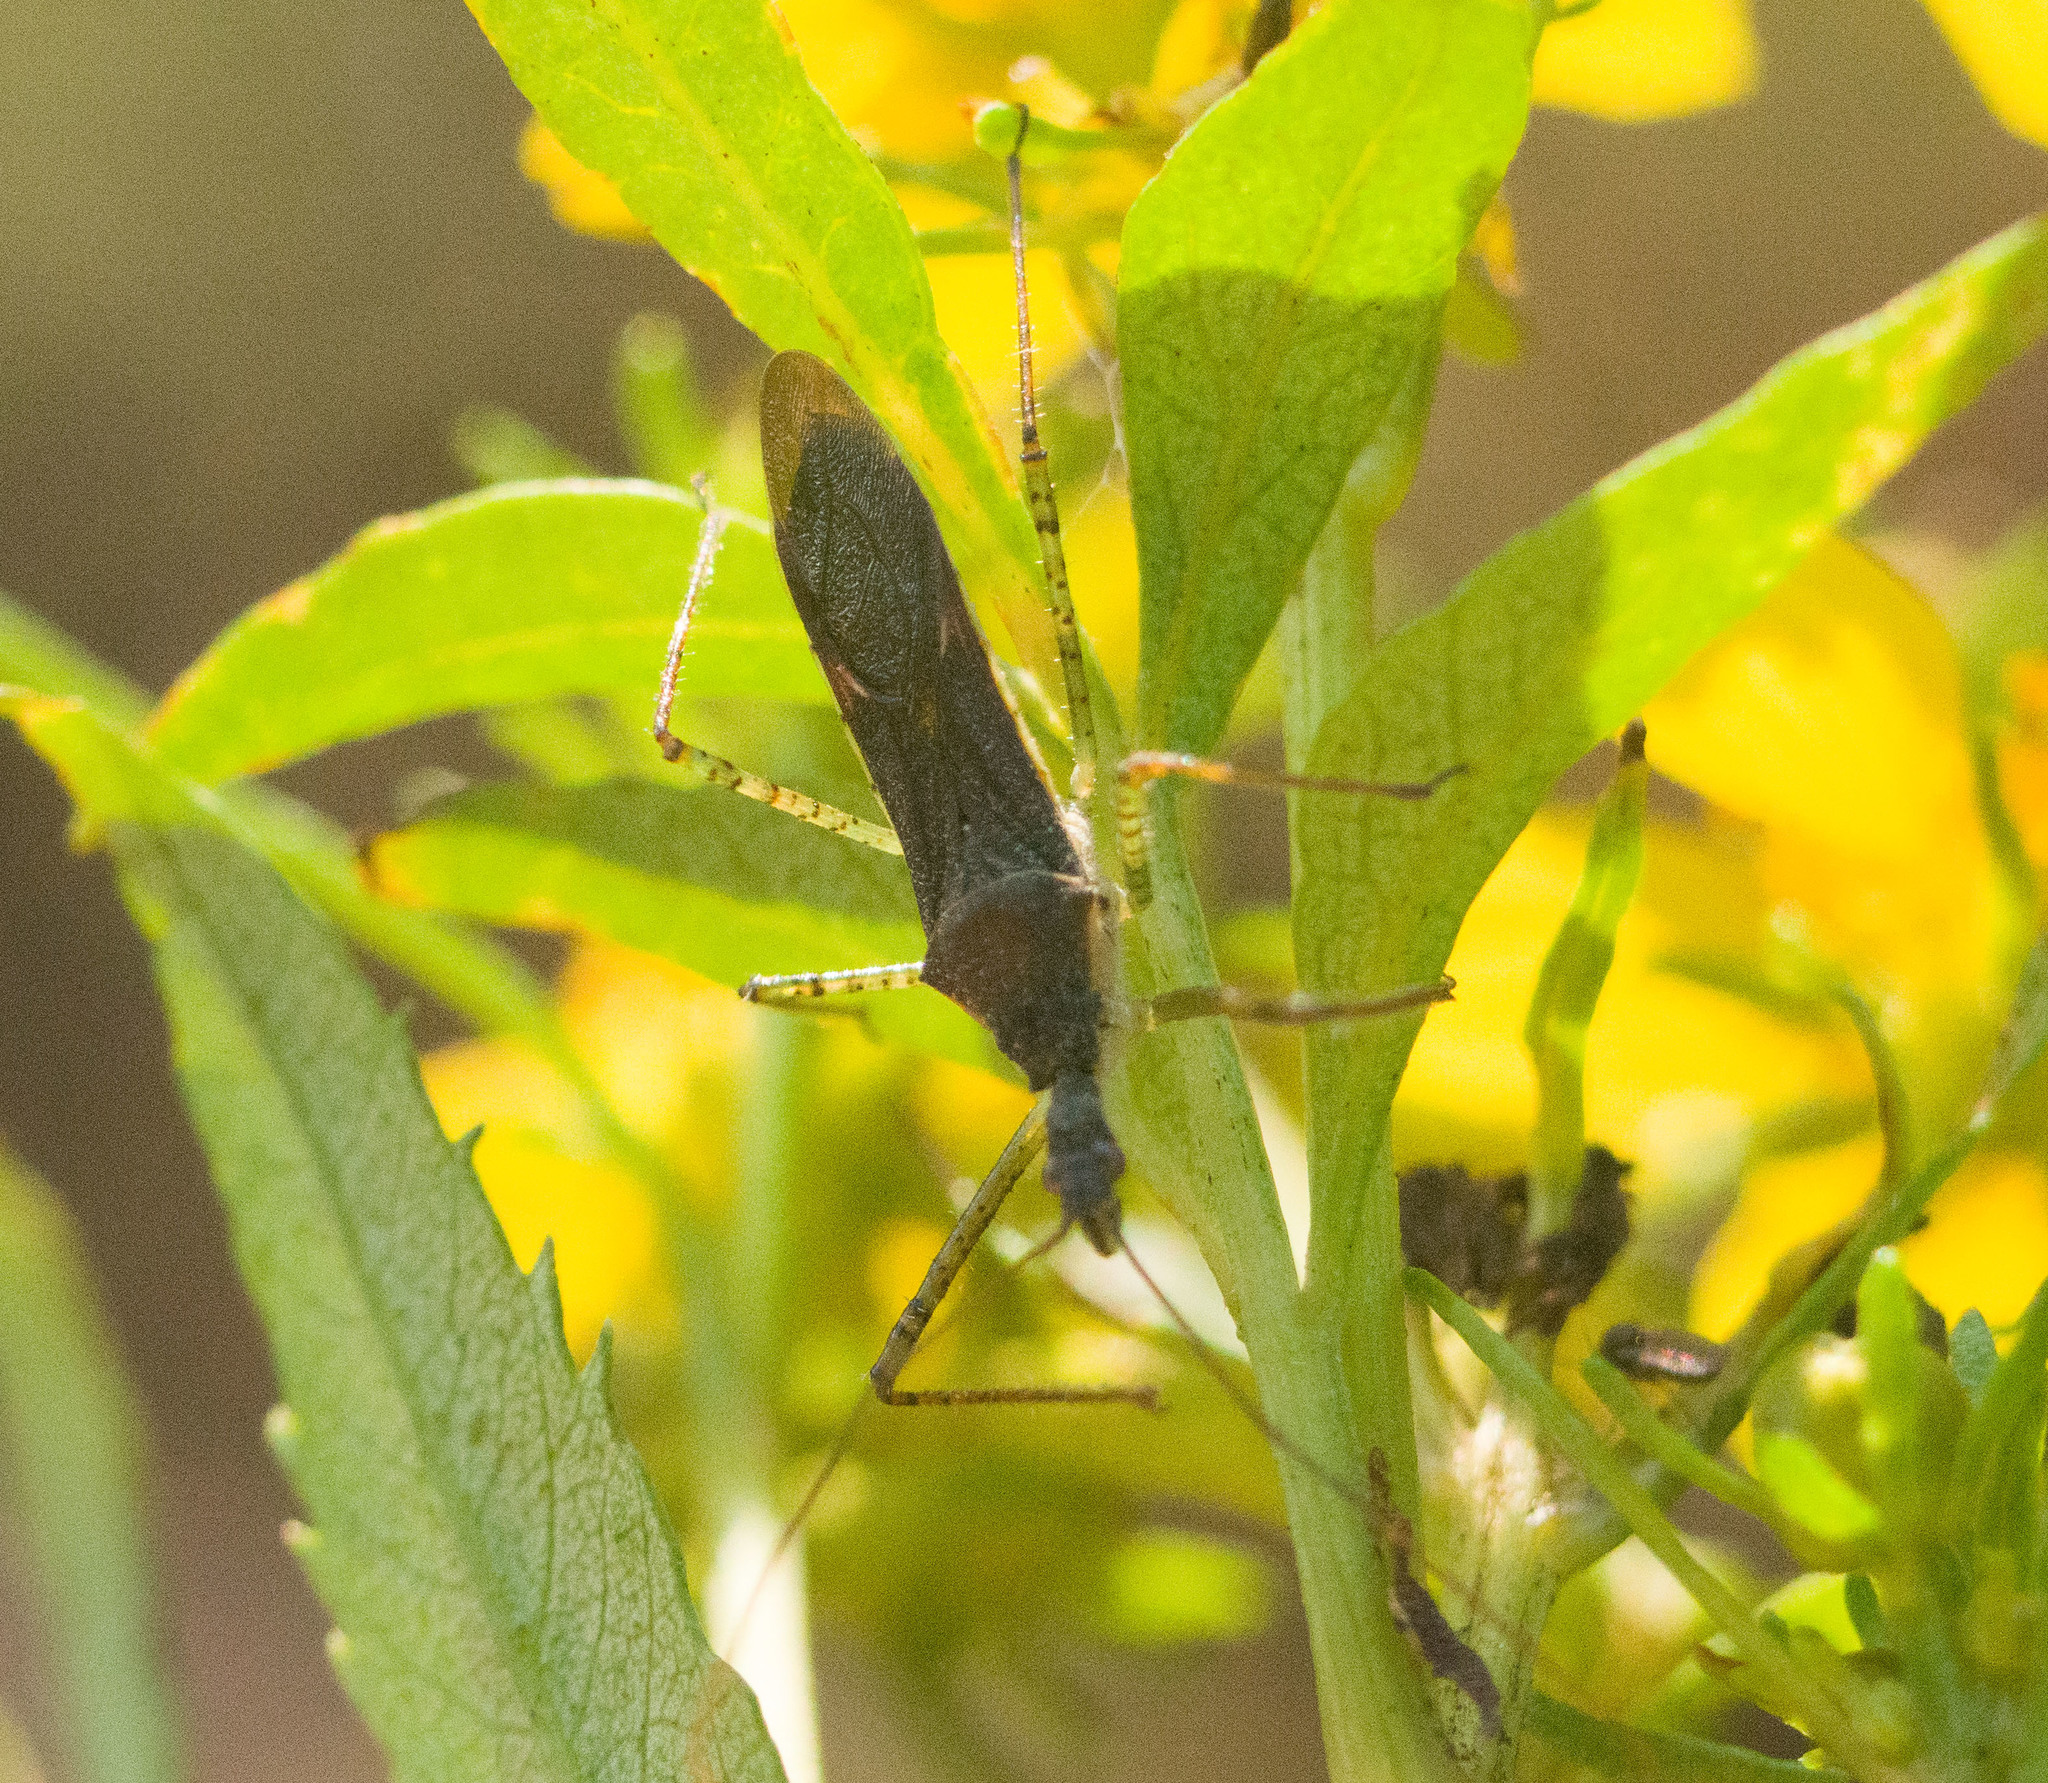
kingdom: Animalia
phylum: Arthropoda
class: Insecta
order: Hemiptera
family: Reduviidae
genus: Zelus
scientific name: Zelus renardii
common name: Assassin bug
